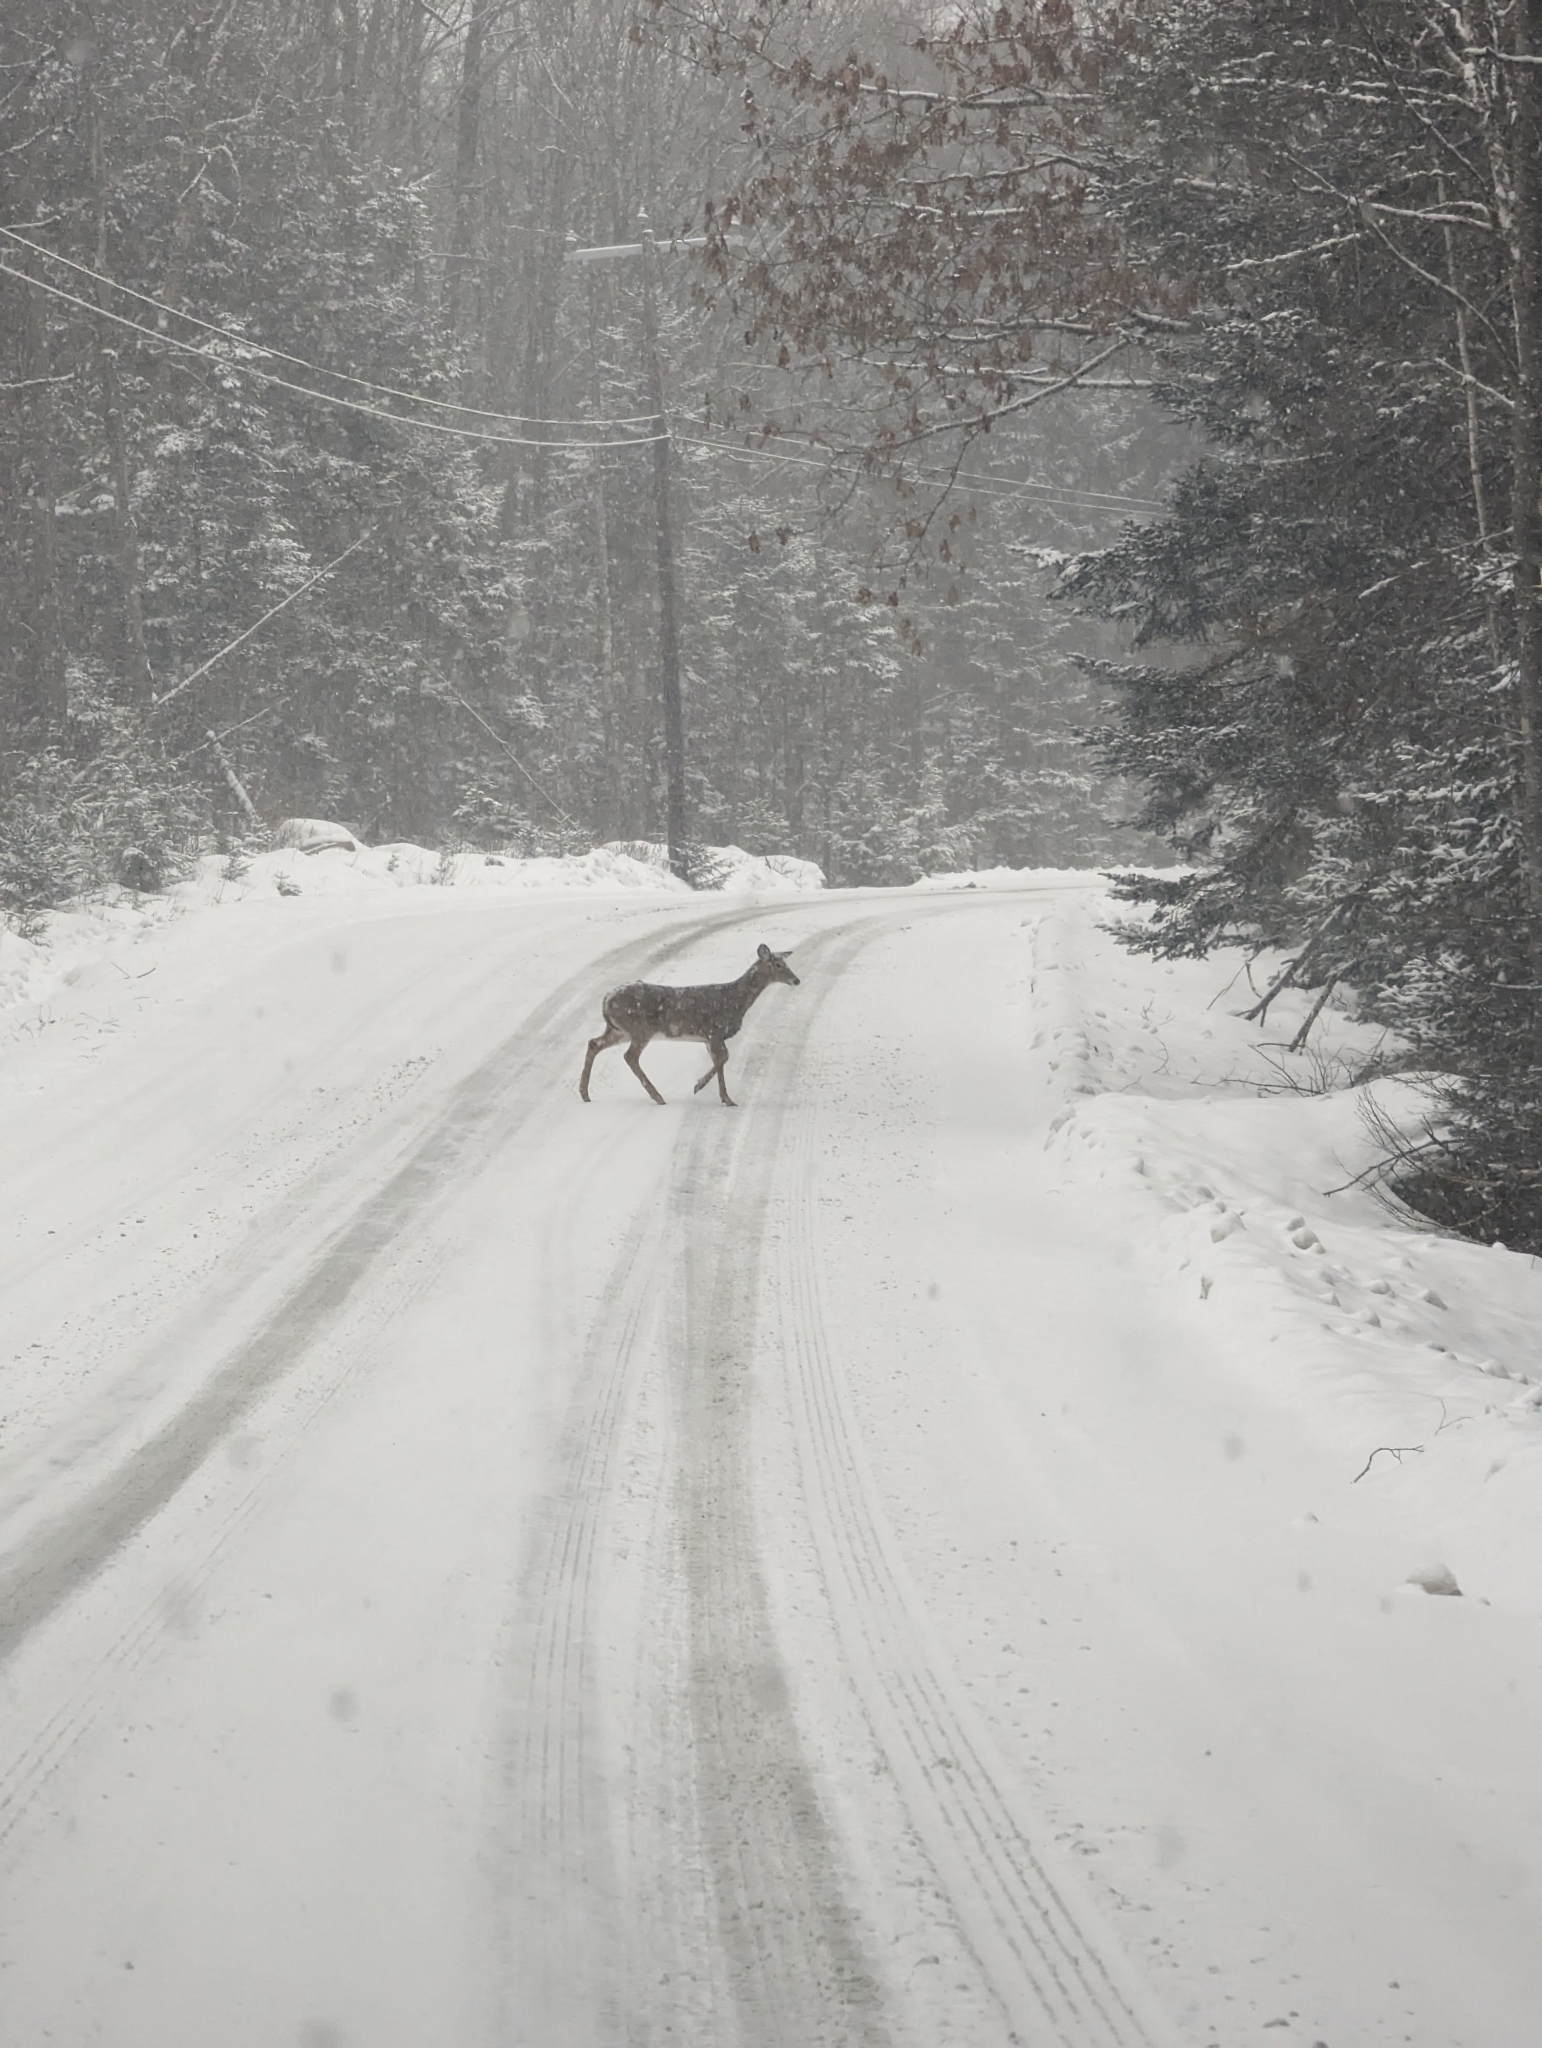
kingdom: Animalia
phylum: Chordata
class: Mammalia
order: Artiodactyla
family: Cervidae
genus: Odocoileus
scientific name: Odocoileus virginianus
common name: White-tailed deer
